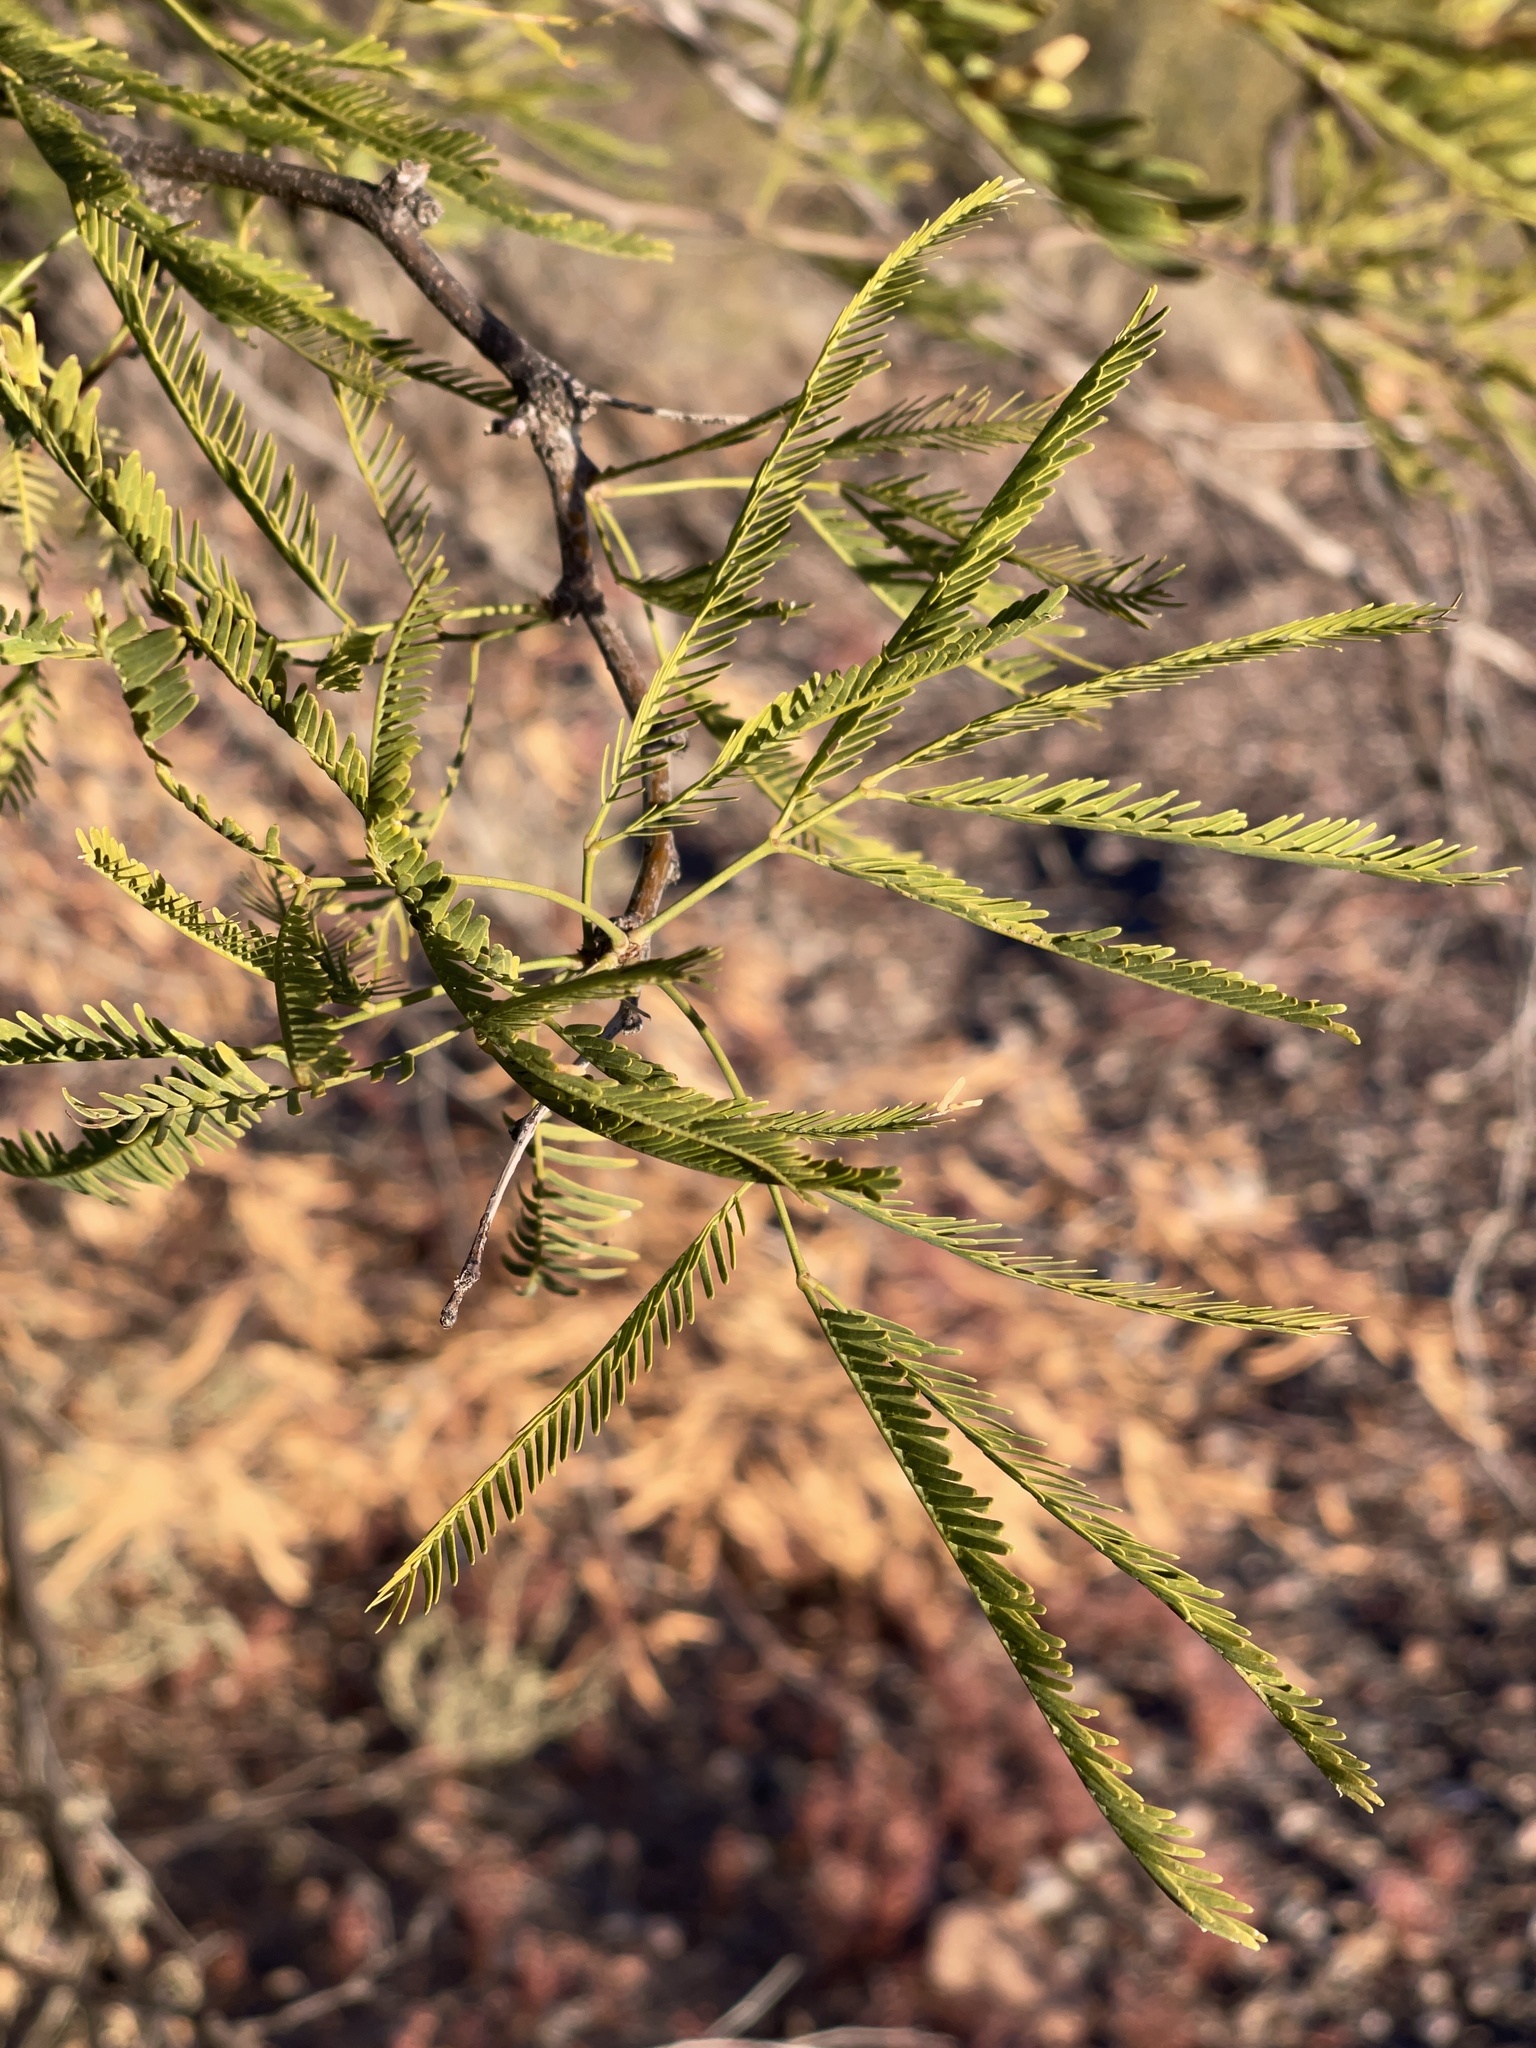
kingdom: Plantae
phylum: Tracheophyta
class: Magnoliopsida
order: Fabales
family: Fabaceae
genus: Prosopis
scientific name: Prosopis velutina
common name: Velvet mesquite
